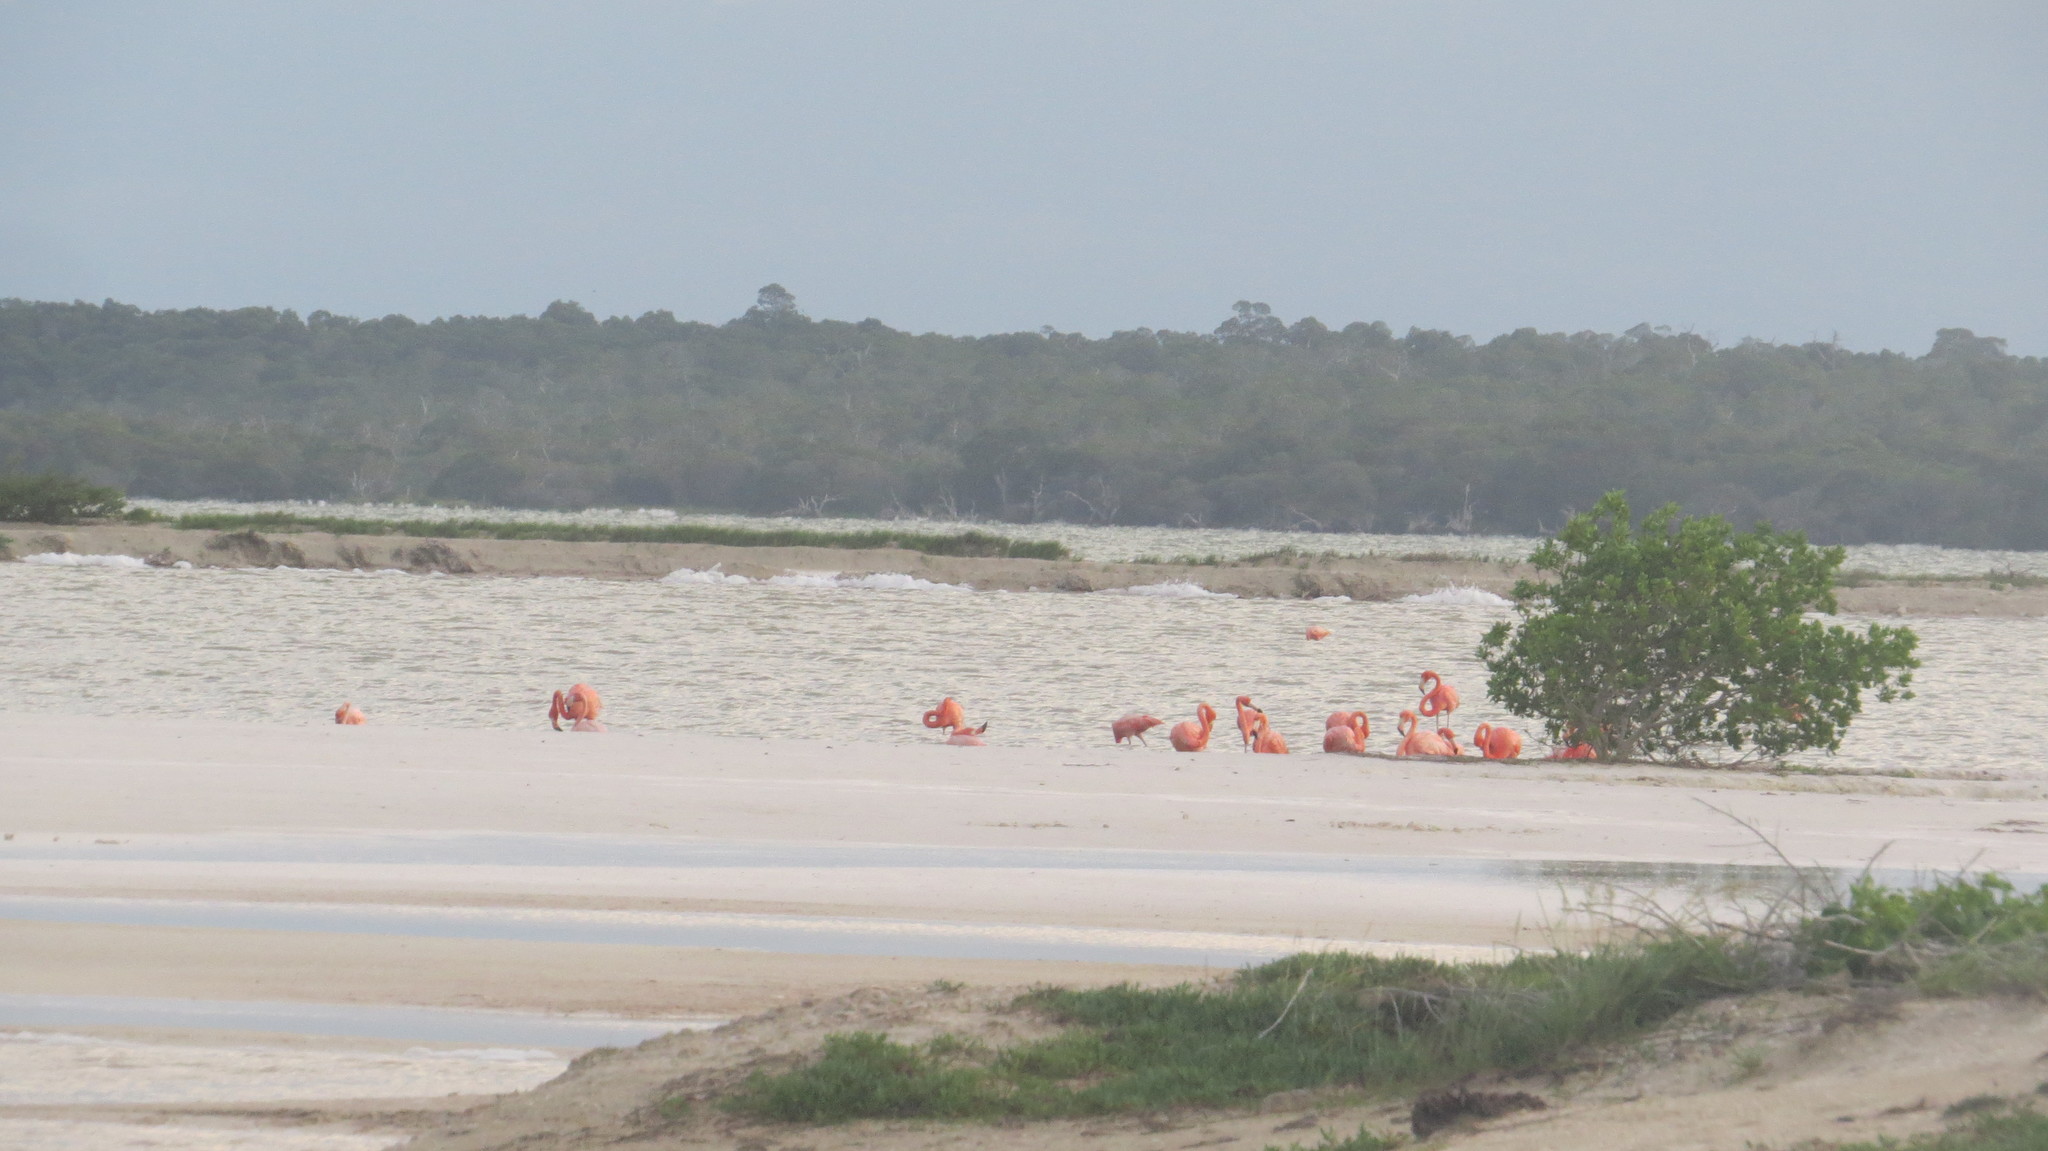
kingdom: Animalia
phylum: Chordata
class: Aves
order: Phoenicopteriformes
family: Phoenicopteridae
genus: Phoenicopterus
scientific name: Phoenicopterus ruber
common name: American flamingo
